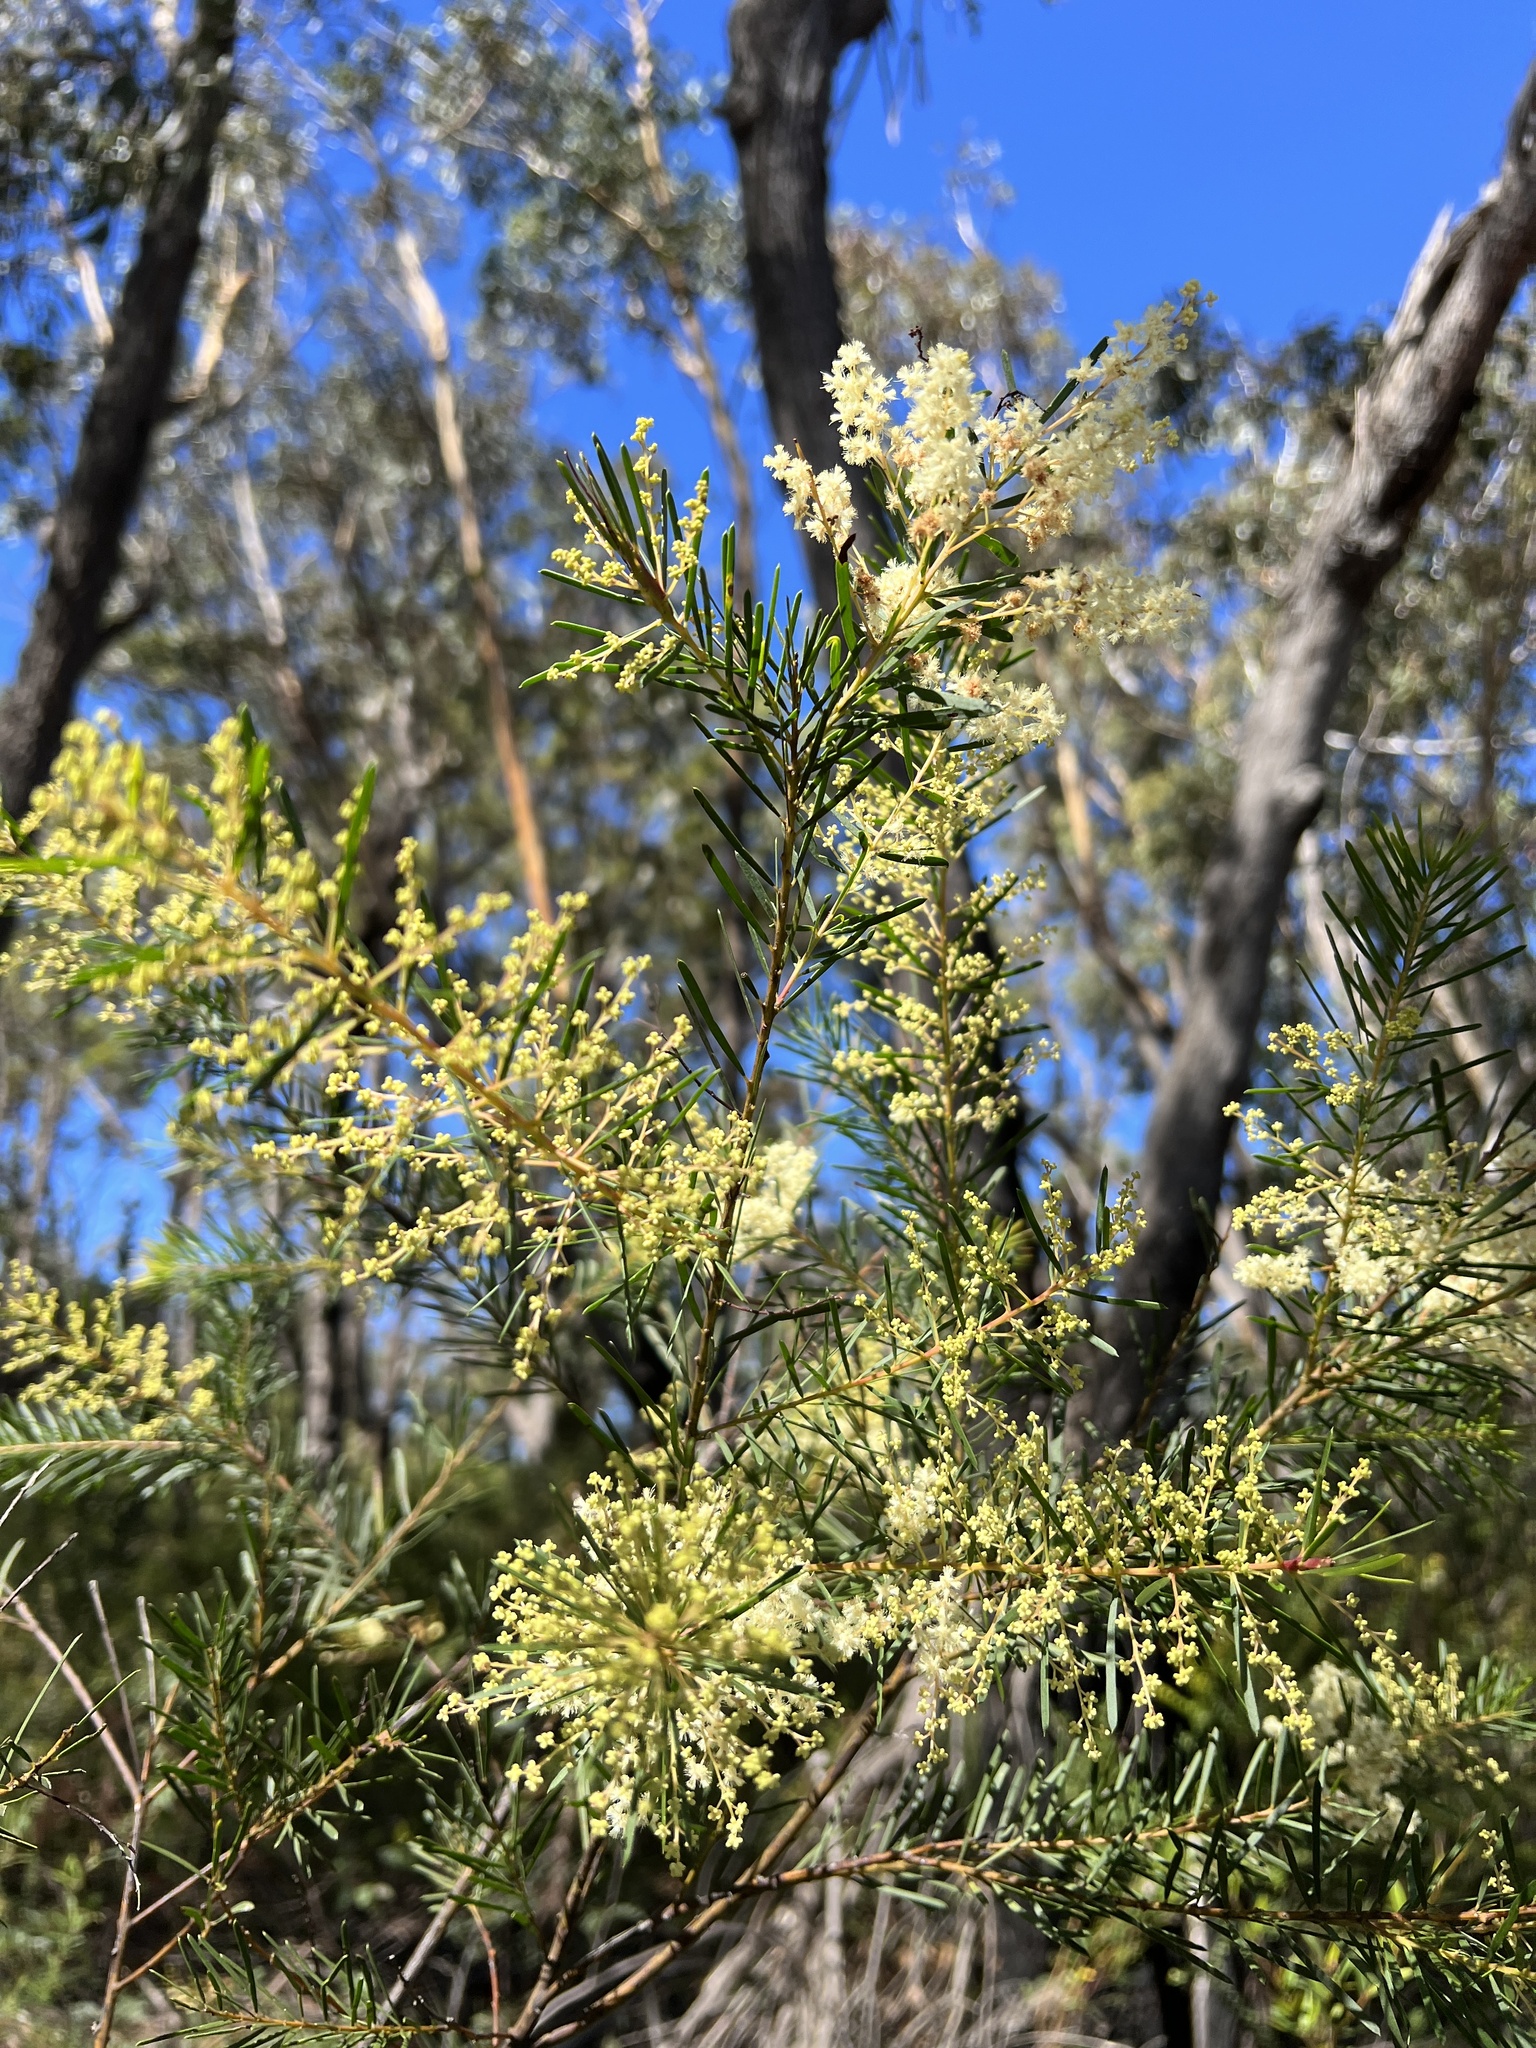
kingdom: Plantae
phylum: Tracheophyta
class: Magnoliopsida
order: Fabales
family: Fabaceae
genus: Acacia
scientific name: Acacia linifolia
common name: White wattle
